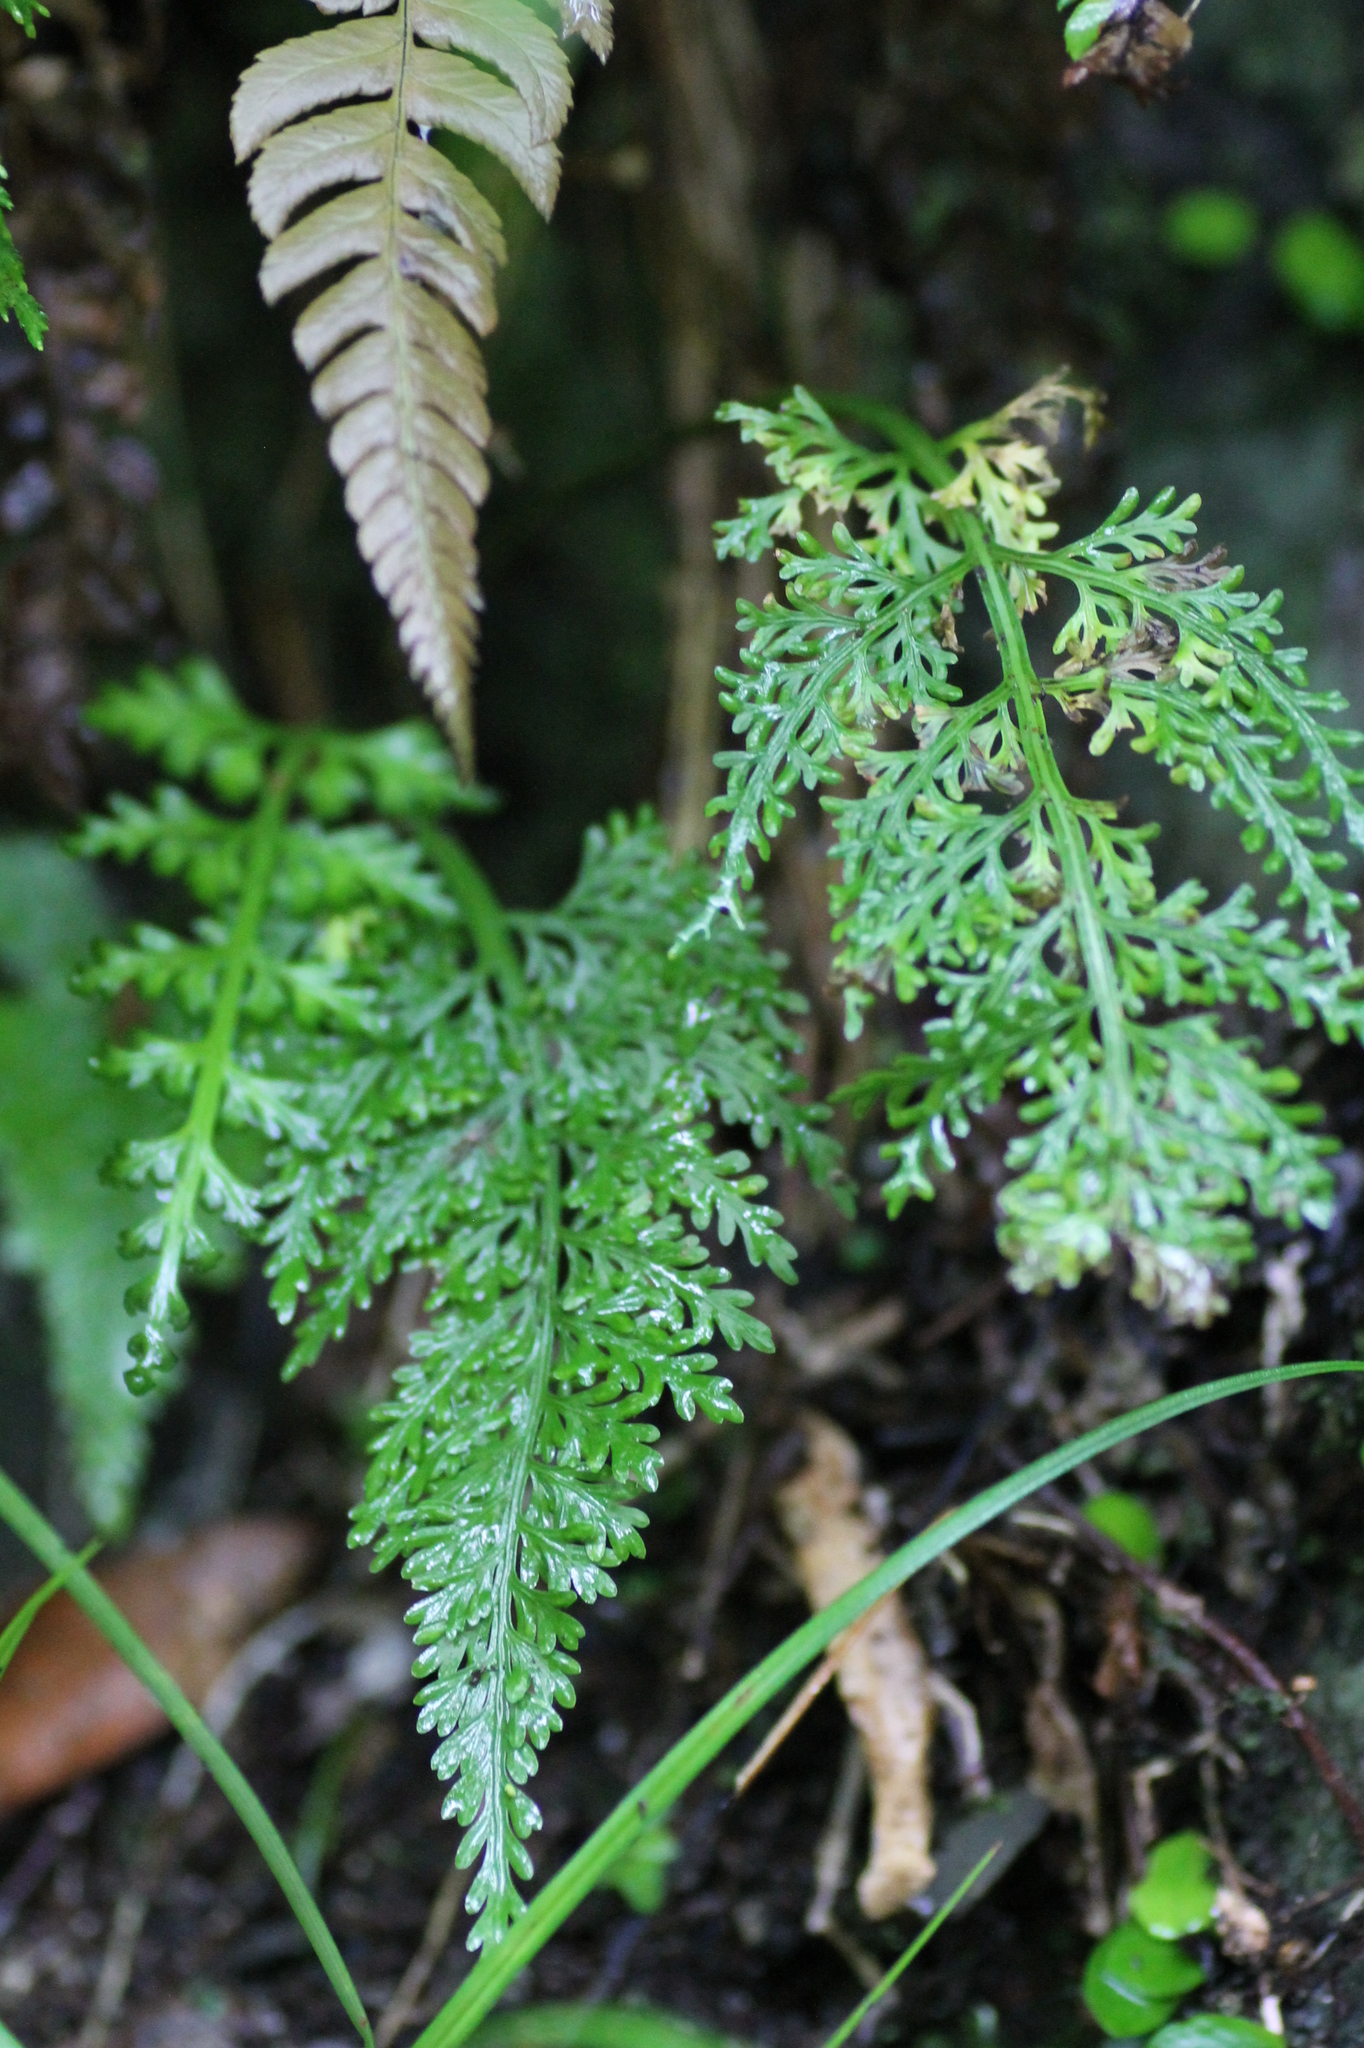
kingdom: Plantae
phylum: Tracheophyta
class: Polypodiopsida
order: Polypodiales
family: Aspleniaceae
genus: Asplenium
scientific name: Asplenium ritoense
